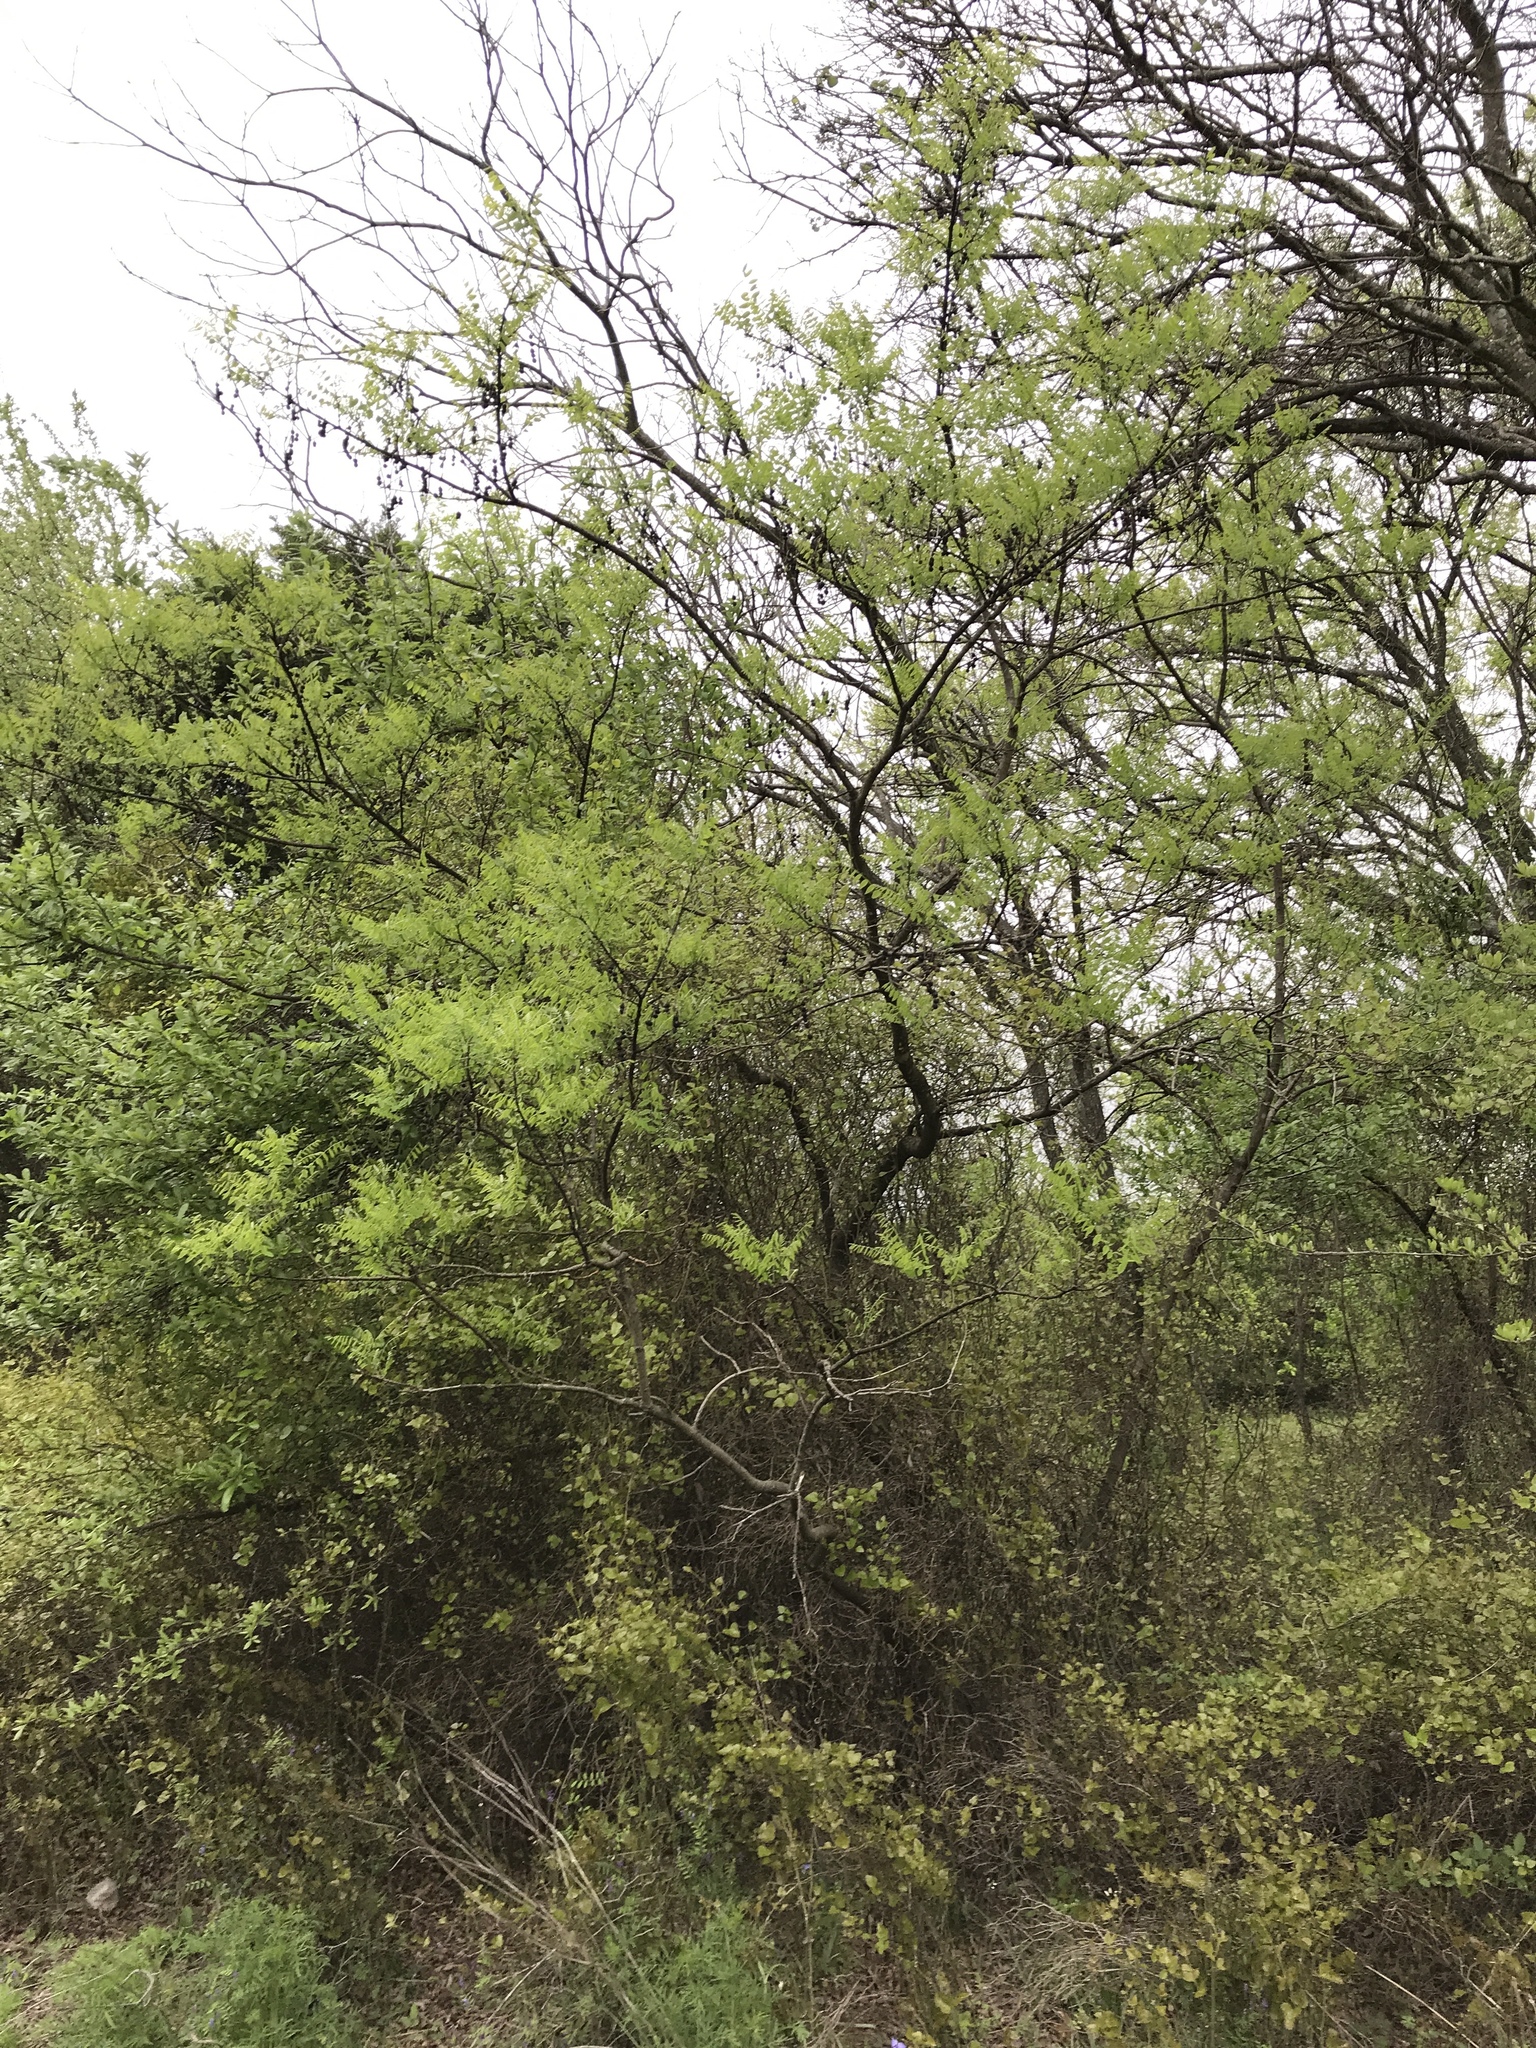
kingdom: Plantae
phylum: Tracheophyta
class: Magnoliopsida
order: Fabales
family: Fabaceae
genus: Styphnolobium
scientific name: Styphnolobium affine
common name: Texas sophora
